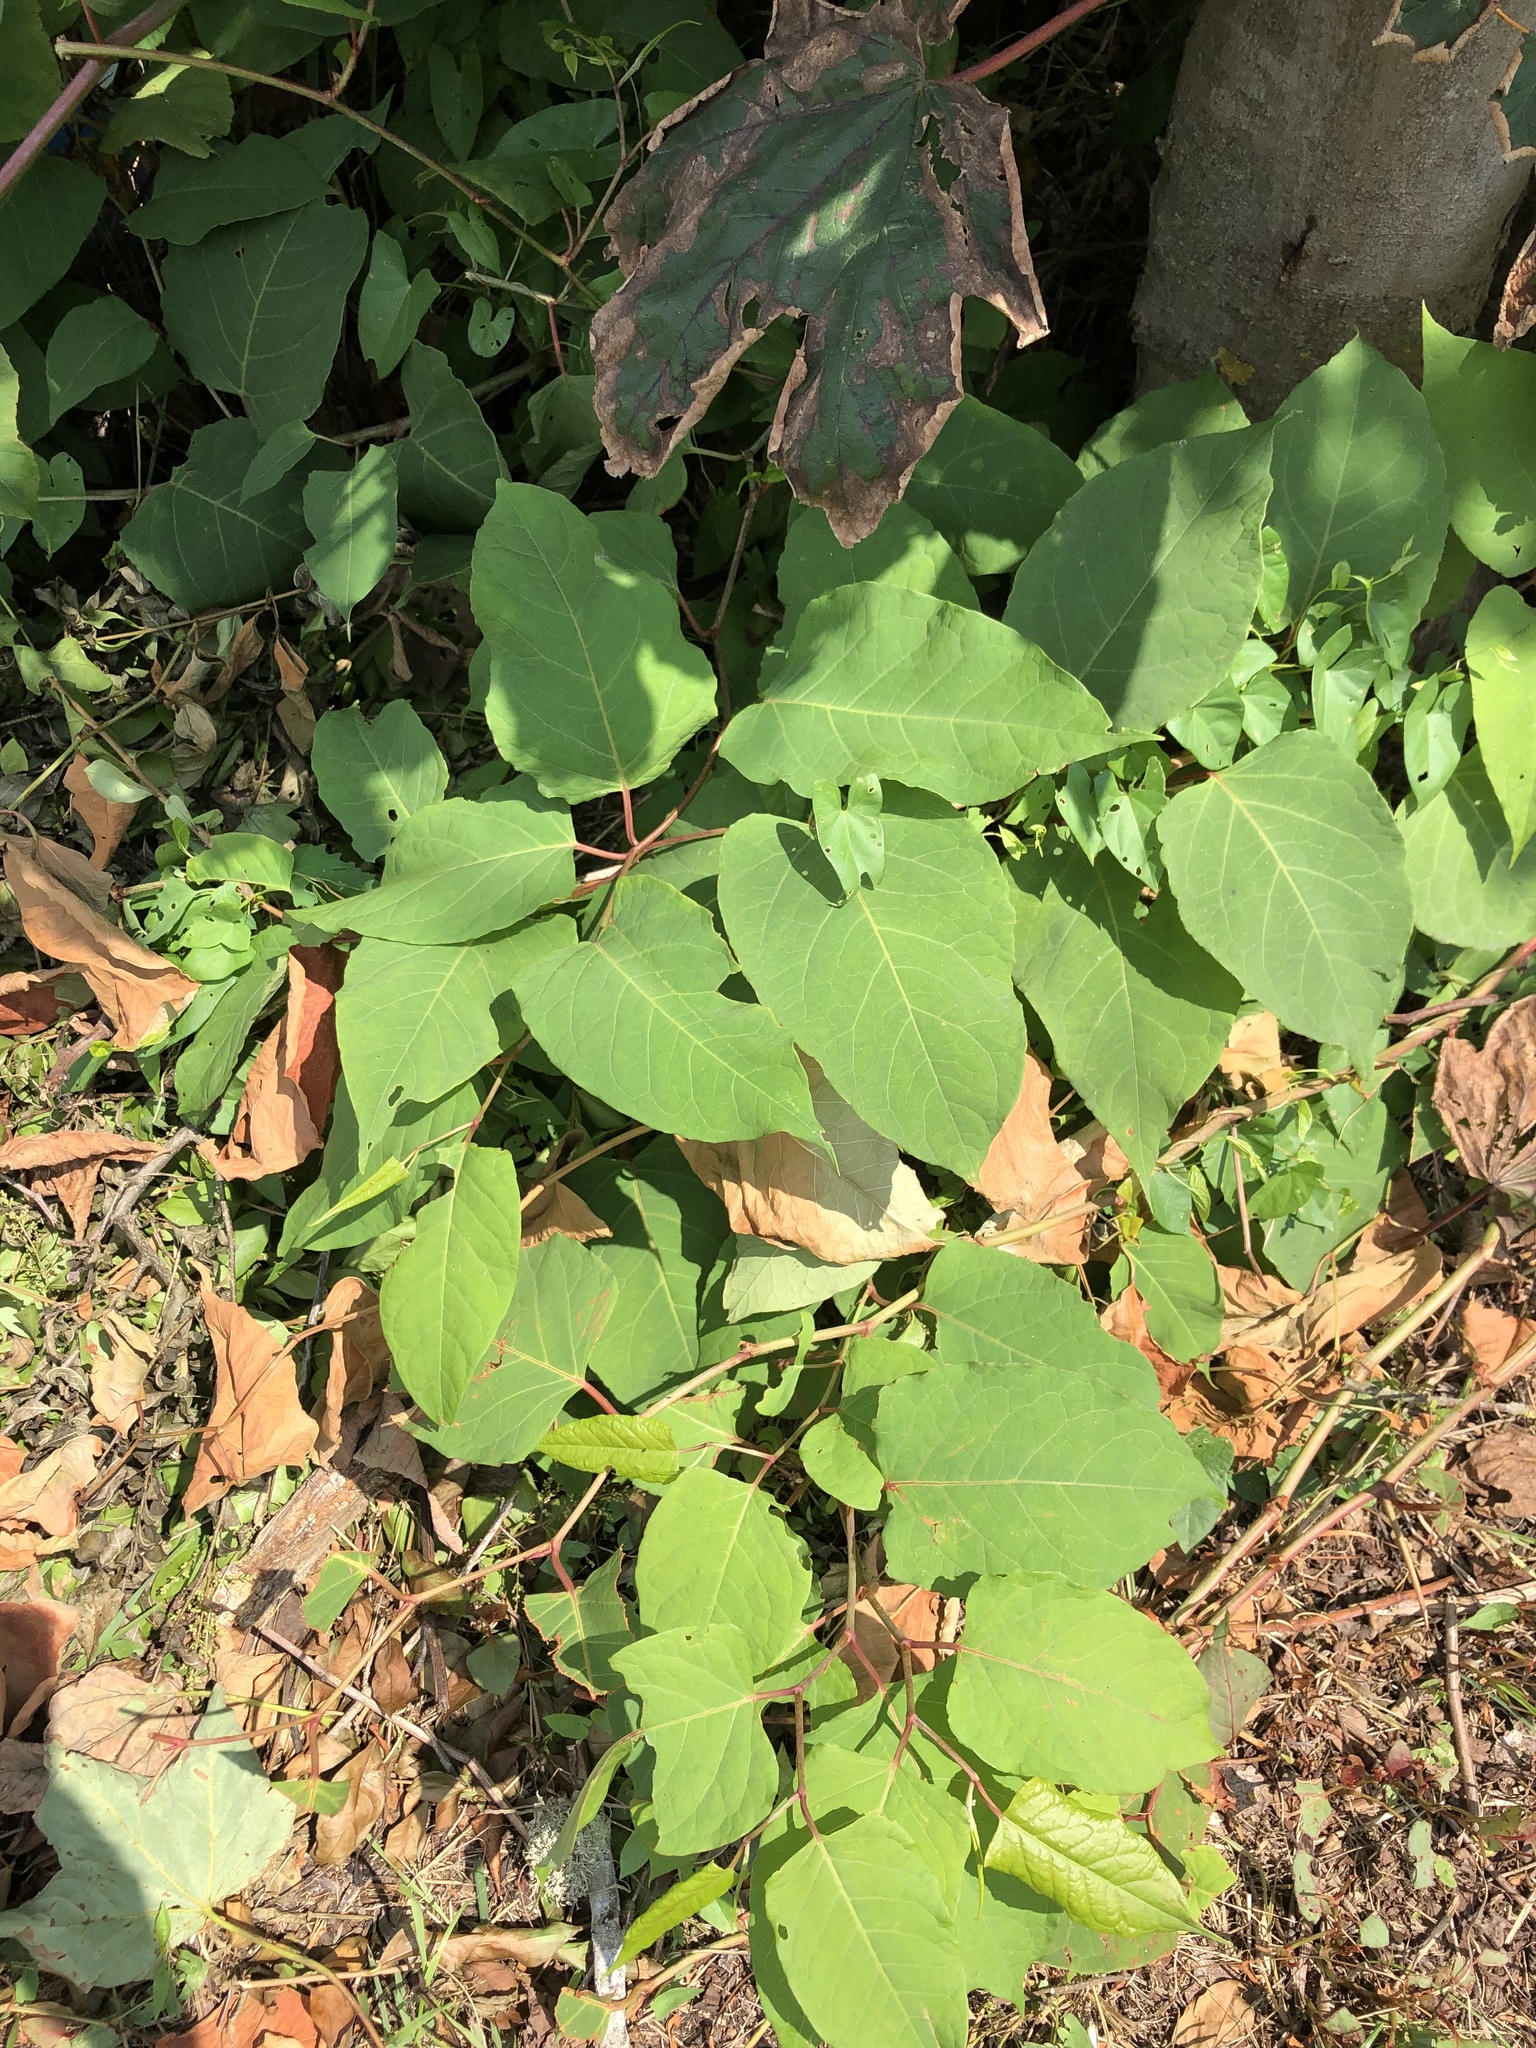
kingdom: Plantae
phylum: Tracheophyta
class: Magnoliopsida
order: Caryophyllales
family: Polygonaceae
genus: Reynoutria
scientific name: Reynoutria japonica
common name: Japanese knotweed
